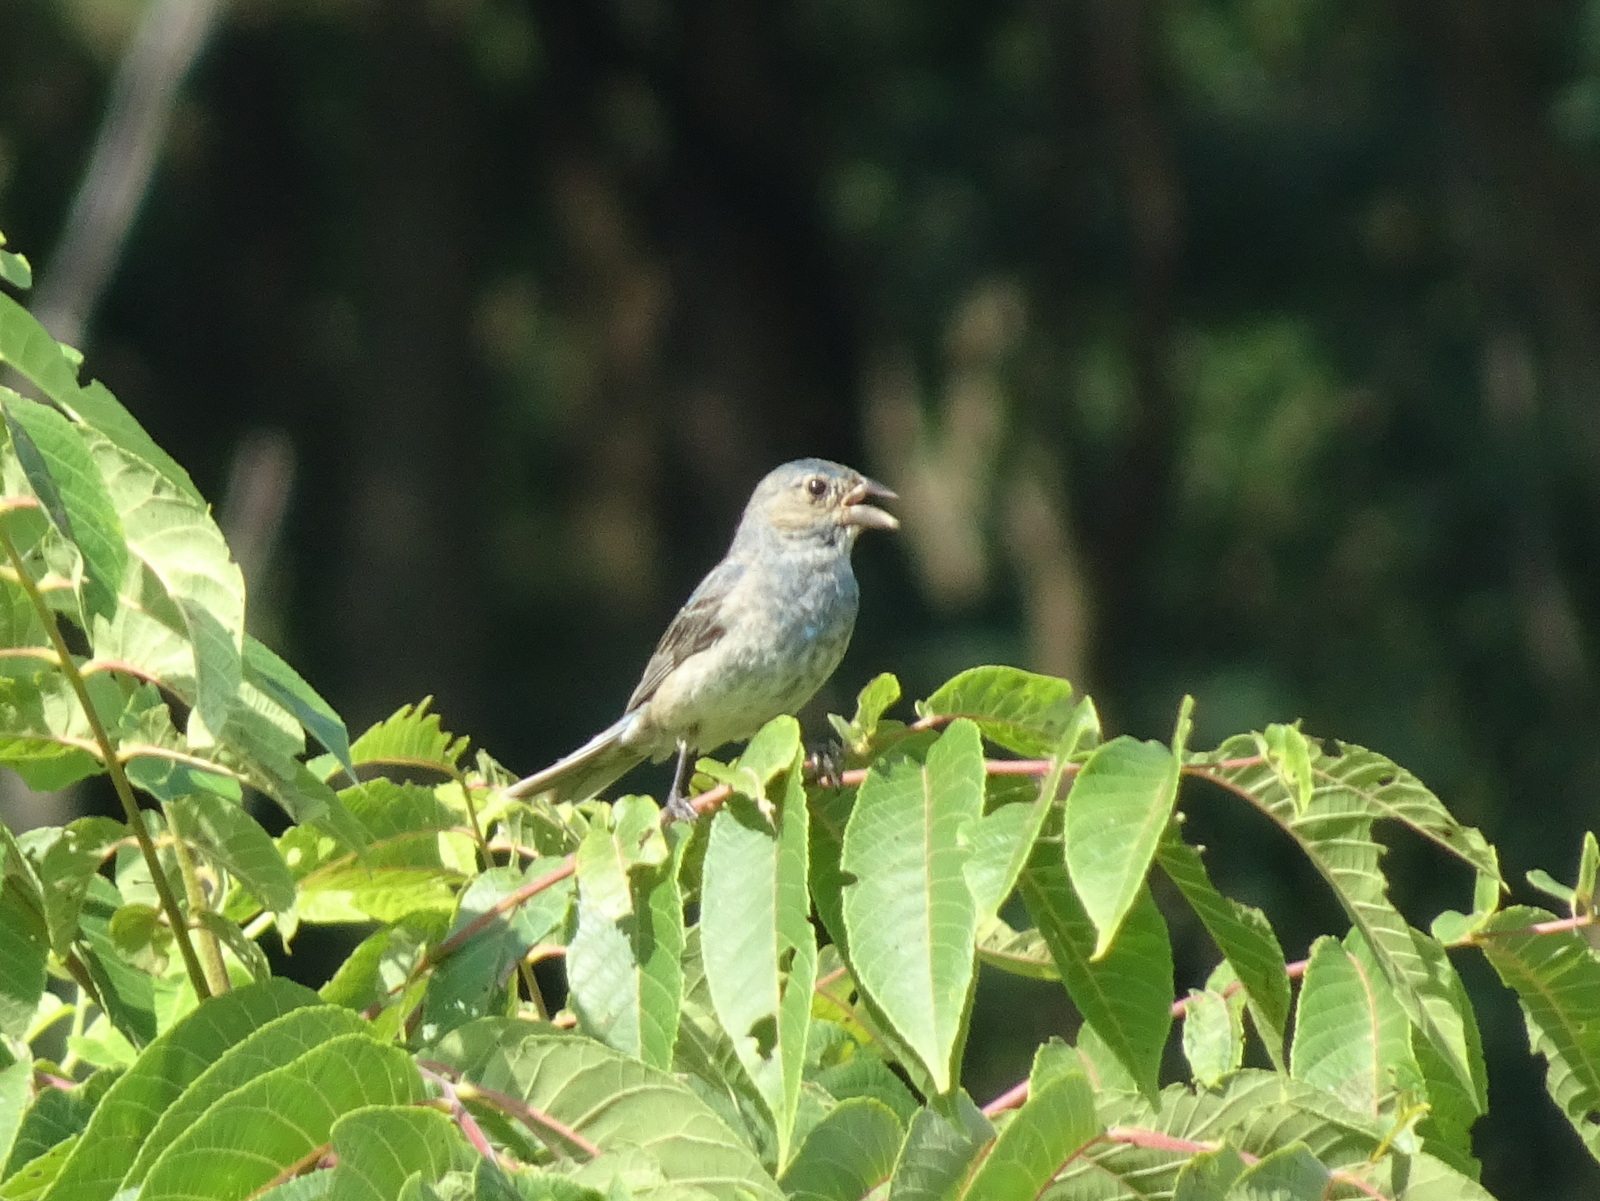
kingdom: Animalia
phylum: Chordata
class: Aves
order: Passeriformes
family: Cardinalidae
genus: Passerina
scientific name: Passerina cyanea
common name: Indigo bunting
